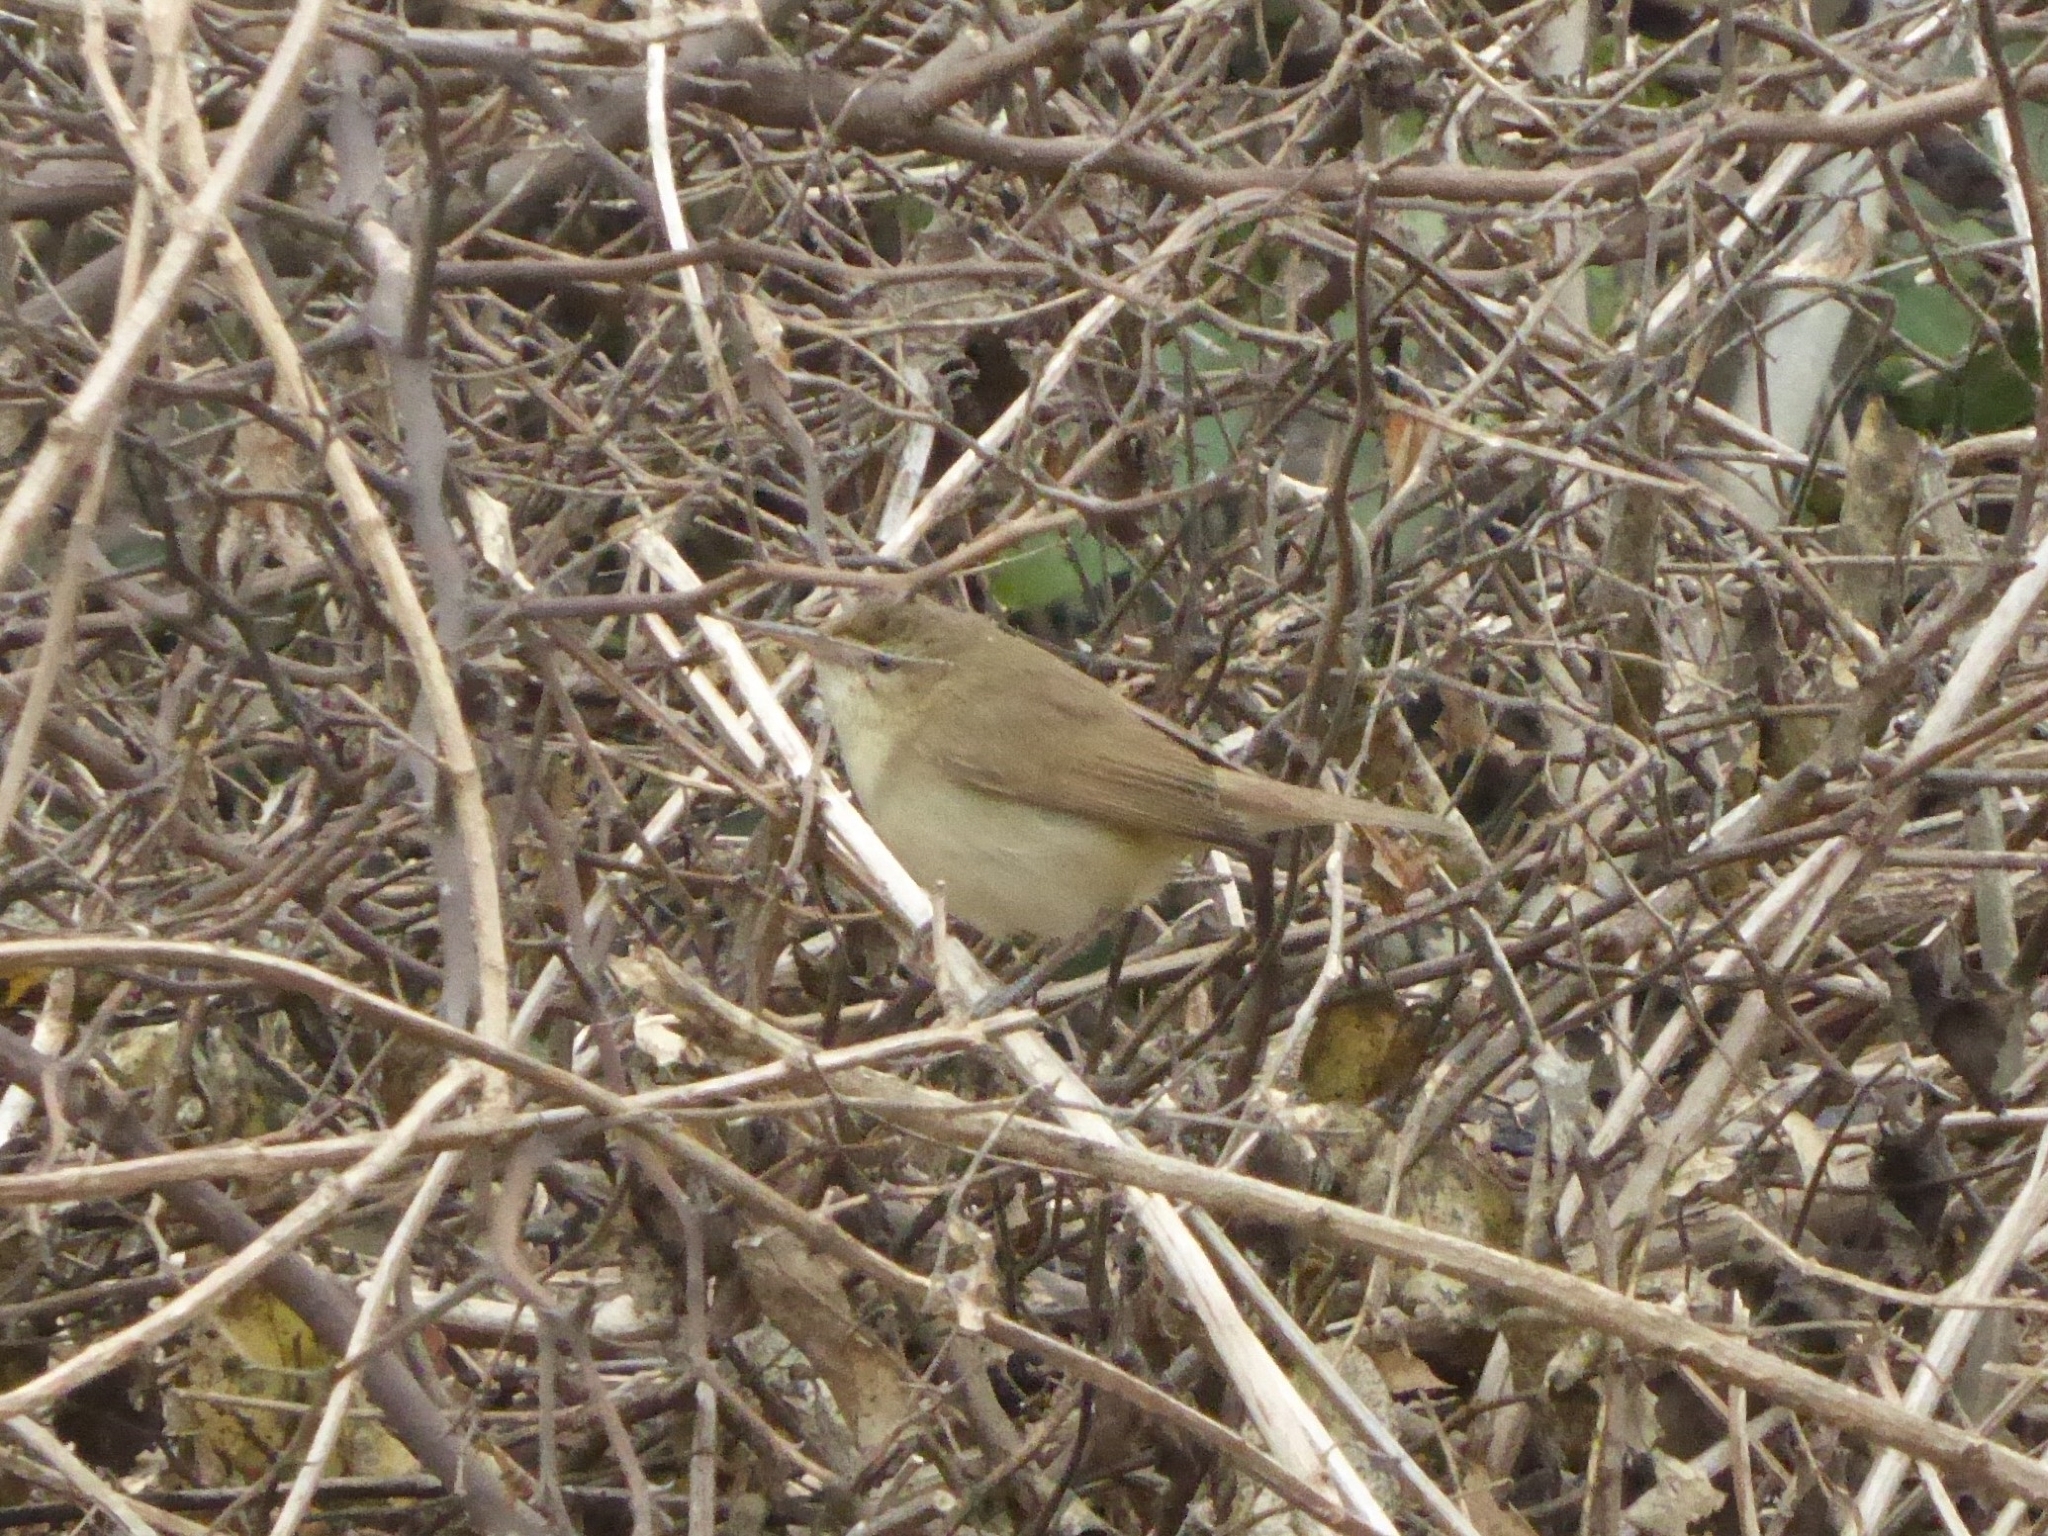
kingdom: Animalia
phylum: Chordata
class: Aves
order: Passeriformes
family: Acrocephalidae
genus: Acrocephalus
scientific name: Acrocephalus dumetorum
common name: Blyth's reed warbler
